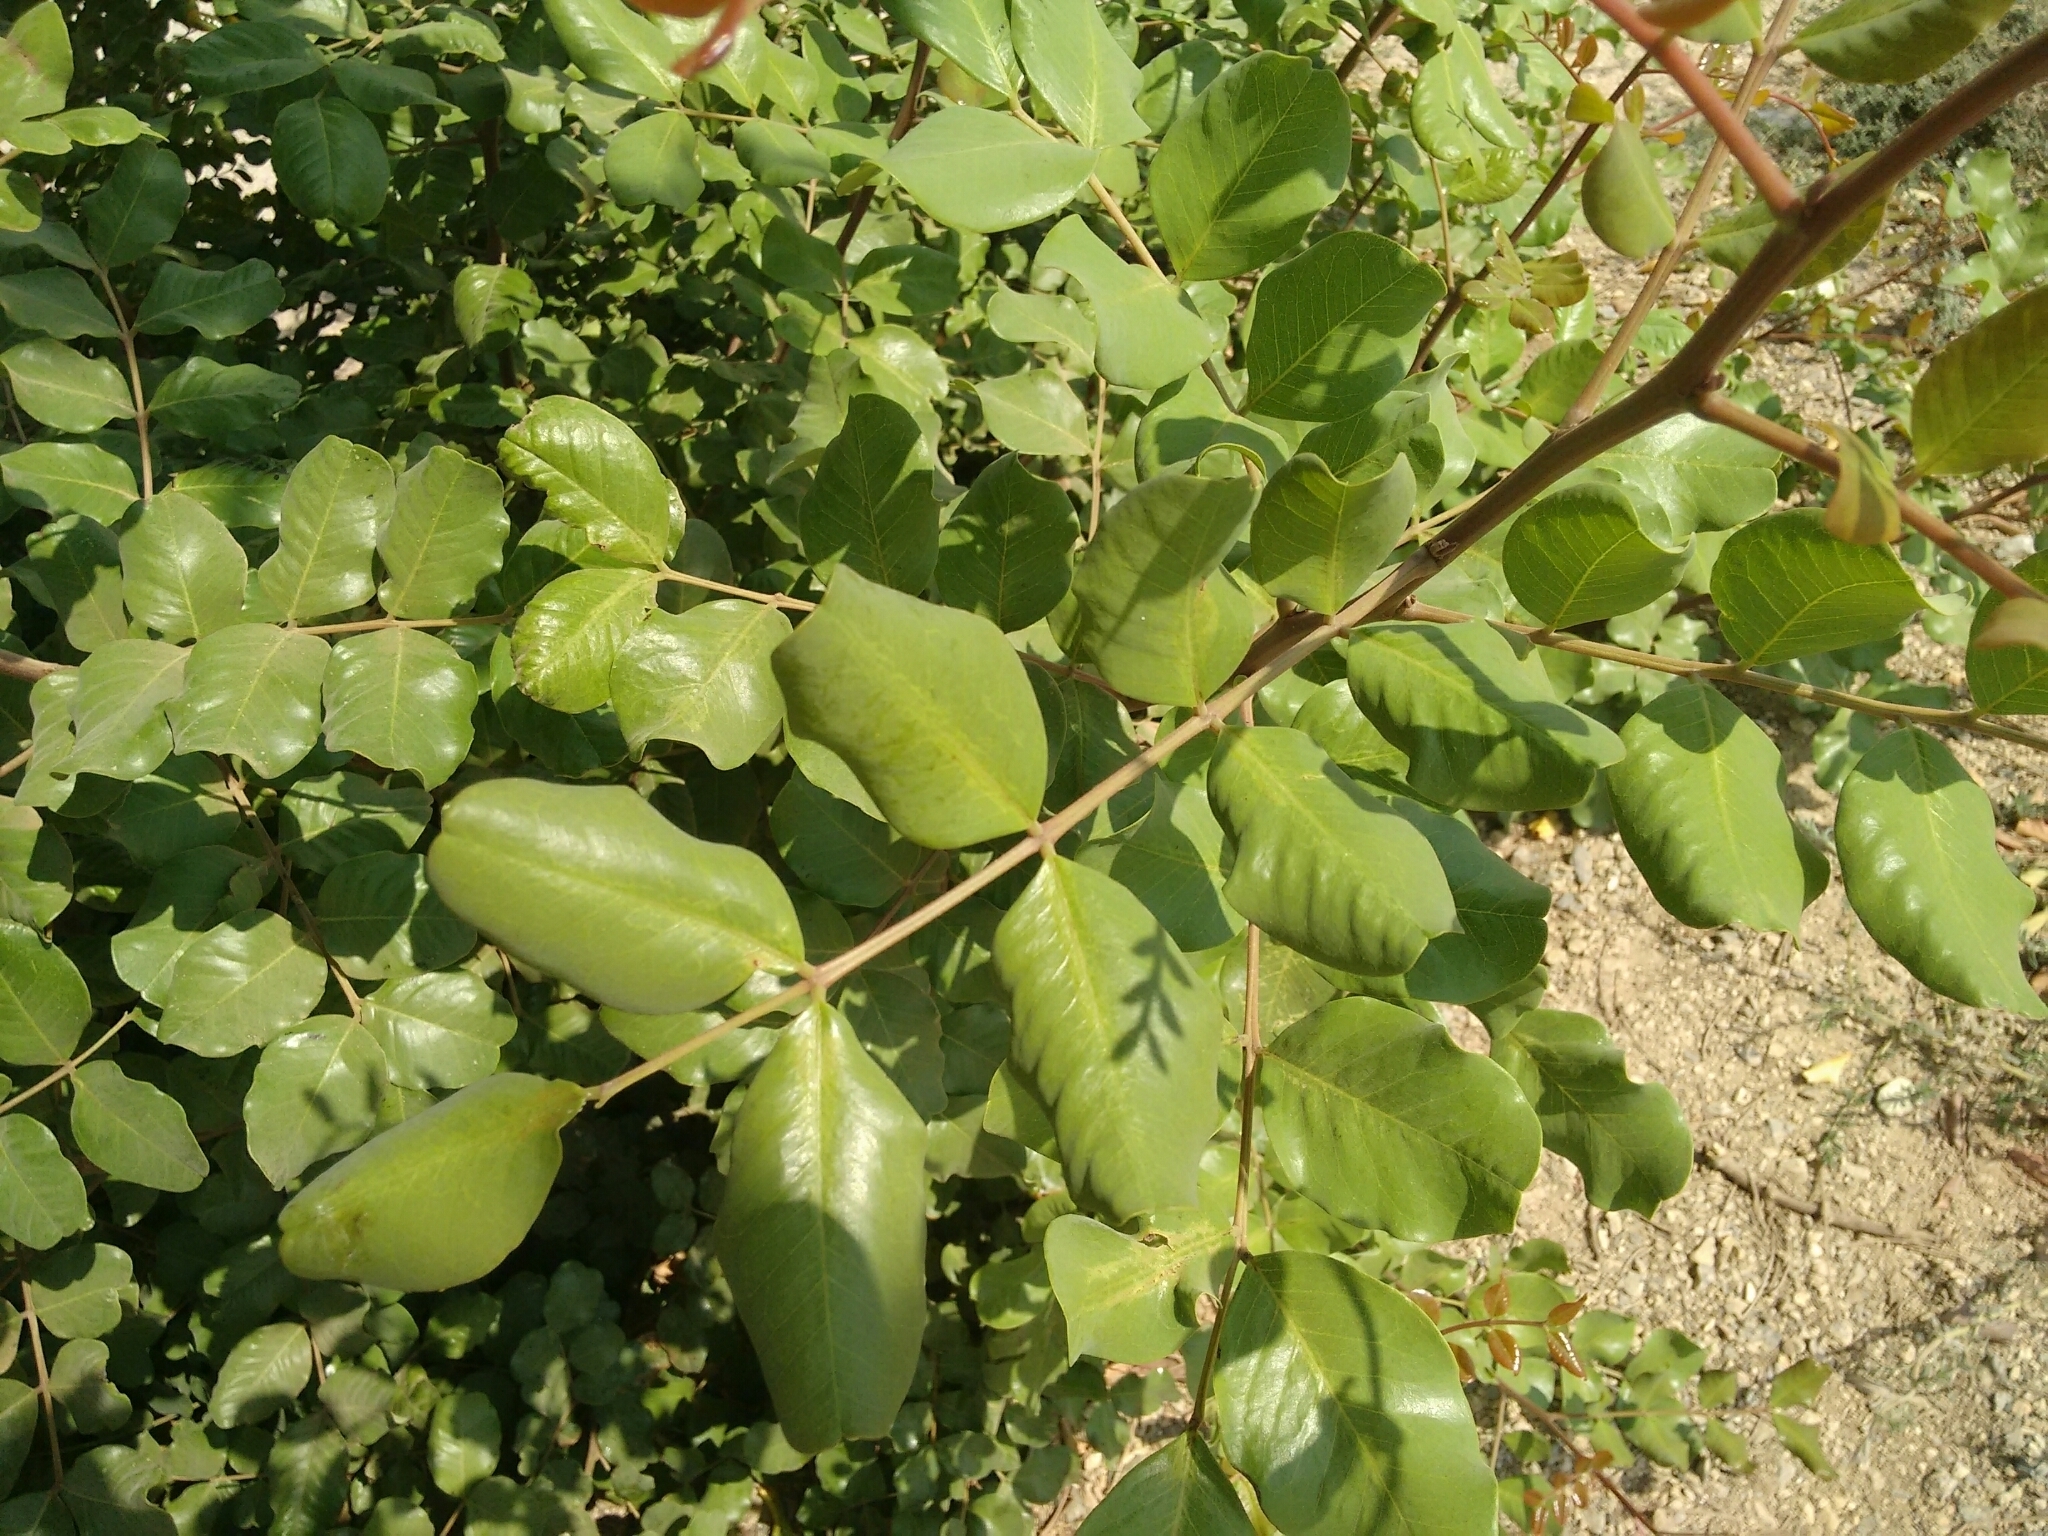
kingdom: Plantae
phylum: Tracheophyta
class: Magnoliopsida
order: Fabales
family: Fabaceae
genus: Ceratonia
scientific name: Ceratonia siliqua
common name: Carob
